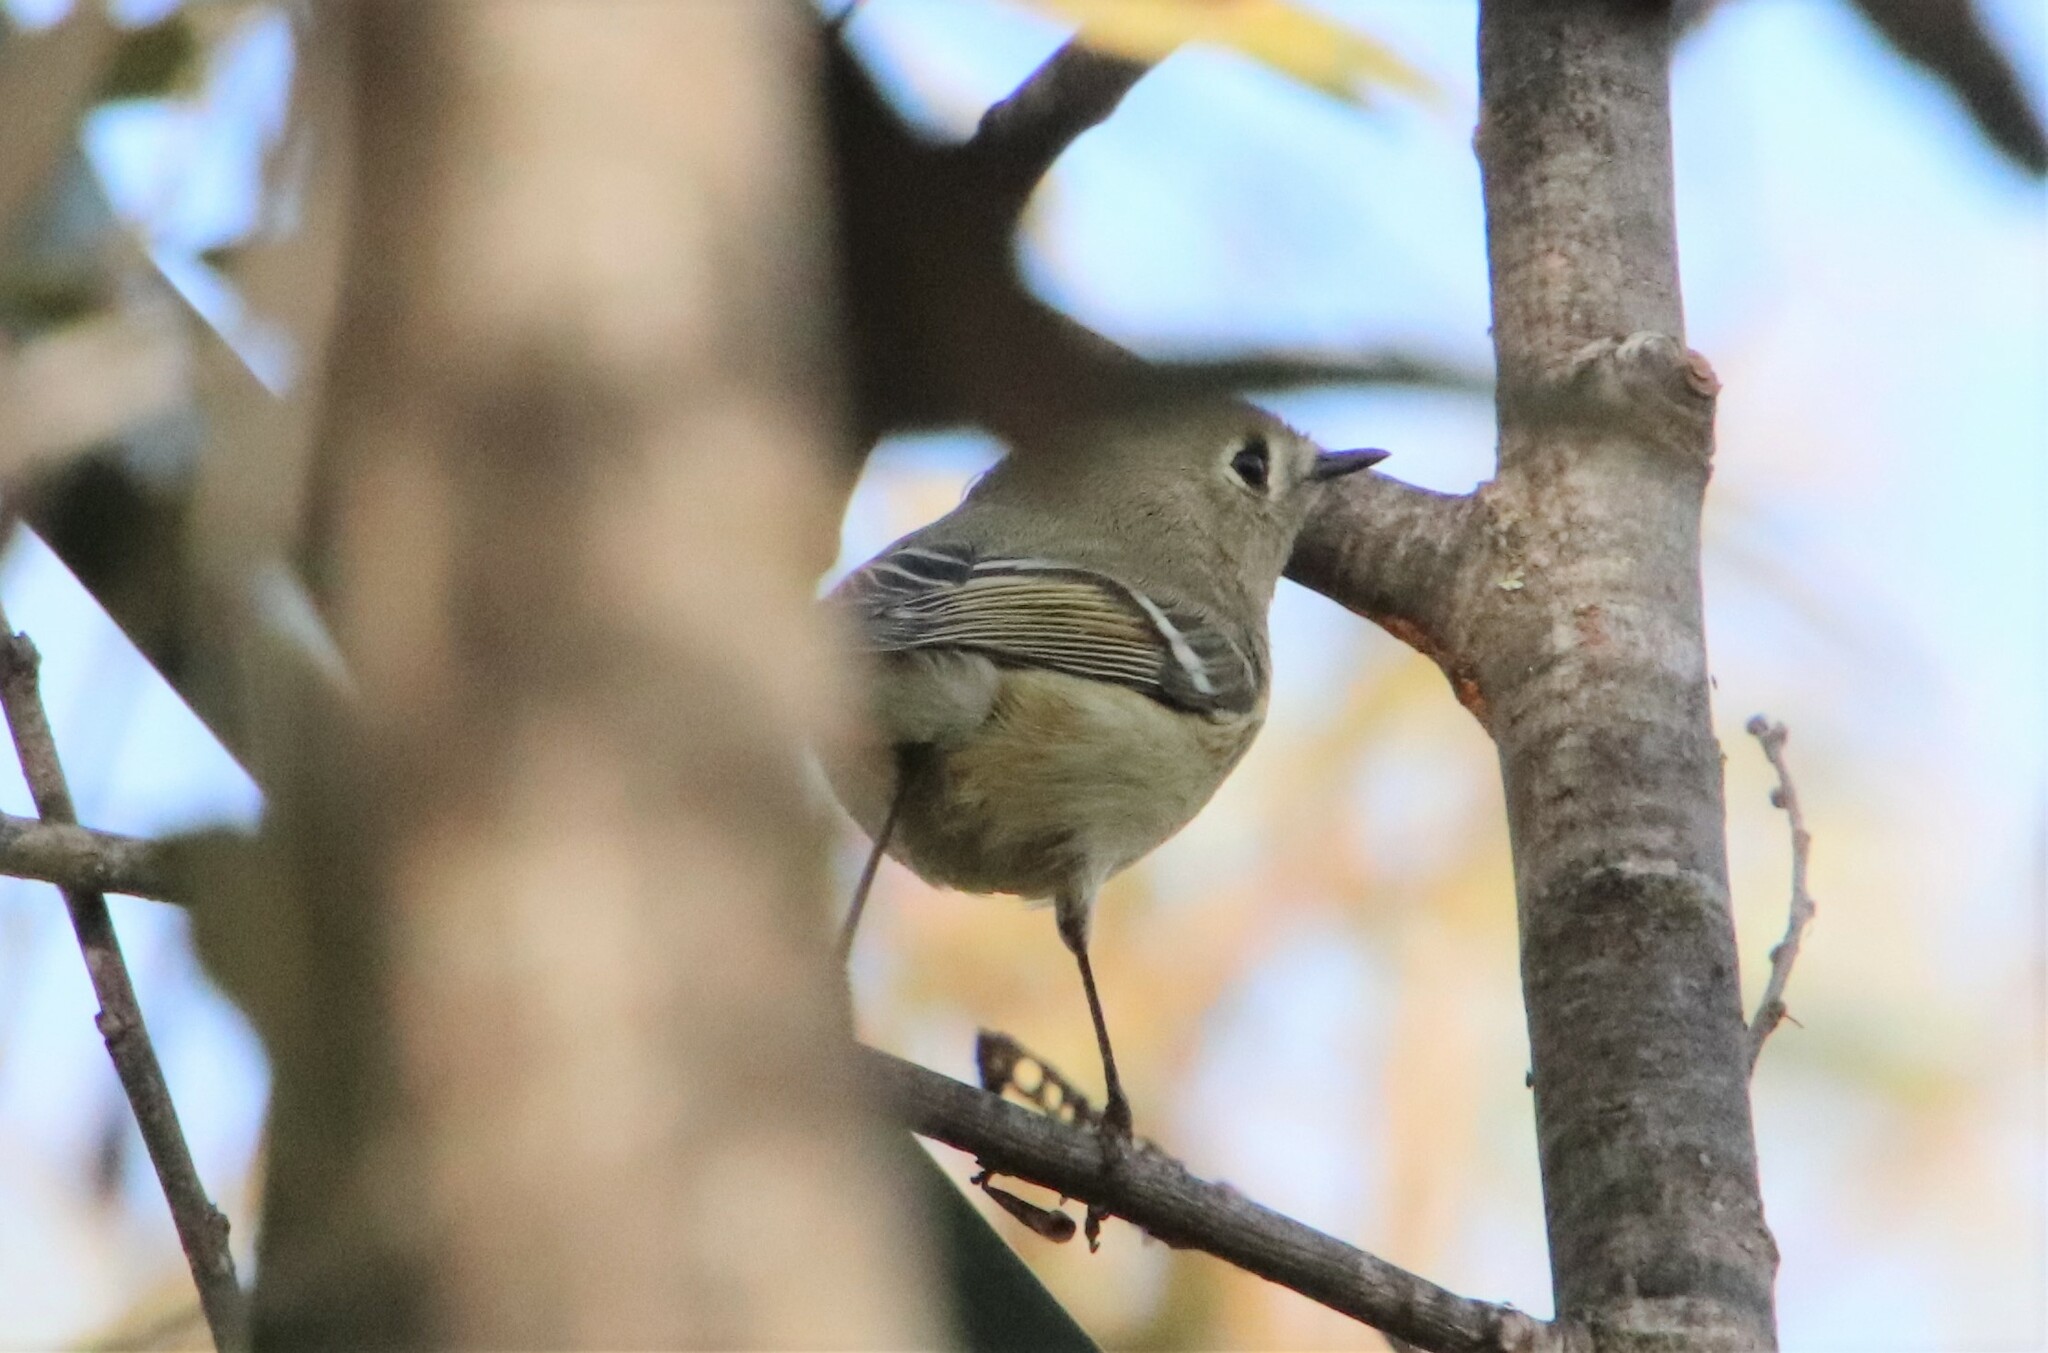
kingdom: Animalia
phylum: Chordata
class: Aves
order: Passeriformes
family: Regulidae
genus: Regulus
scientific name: Regulus calendula
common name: Ruby-crowned kinglet
